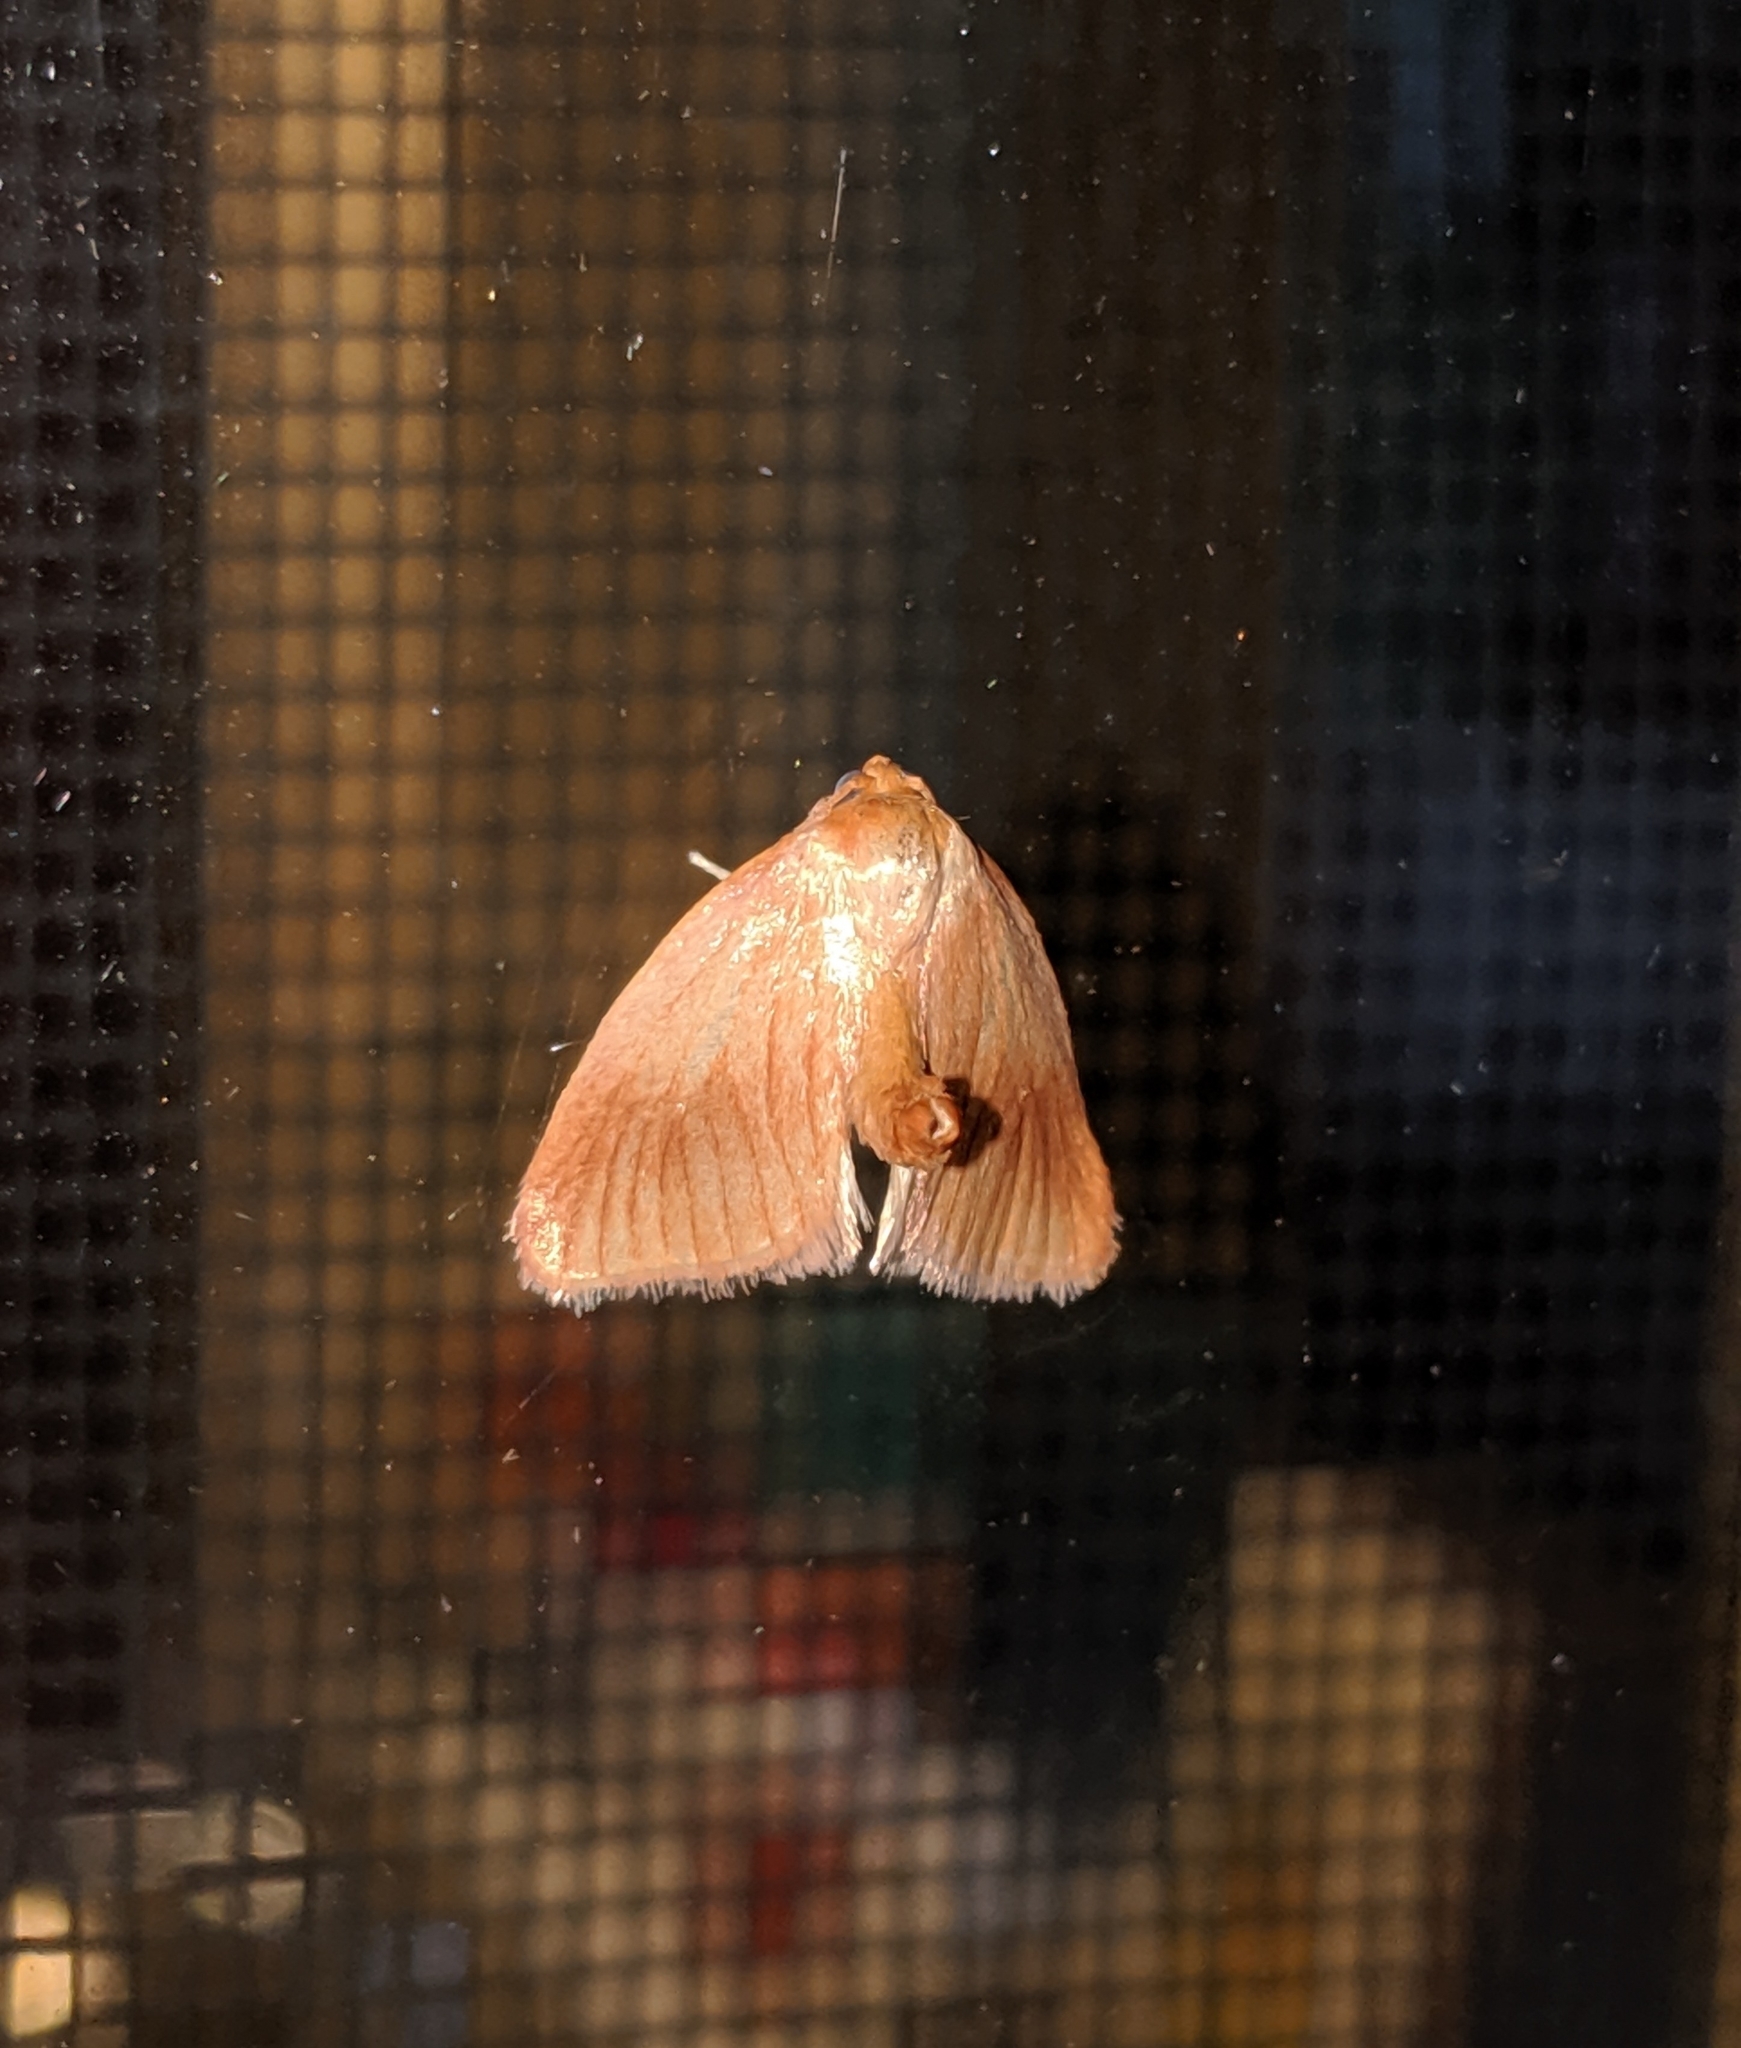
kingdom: Animalia
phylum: Arthropoda
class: Insecta
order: Lepidoptera
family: Limacodidae
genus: Tortricidia
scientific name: Tortricidia testacea
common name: Early button slug moth
